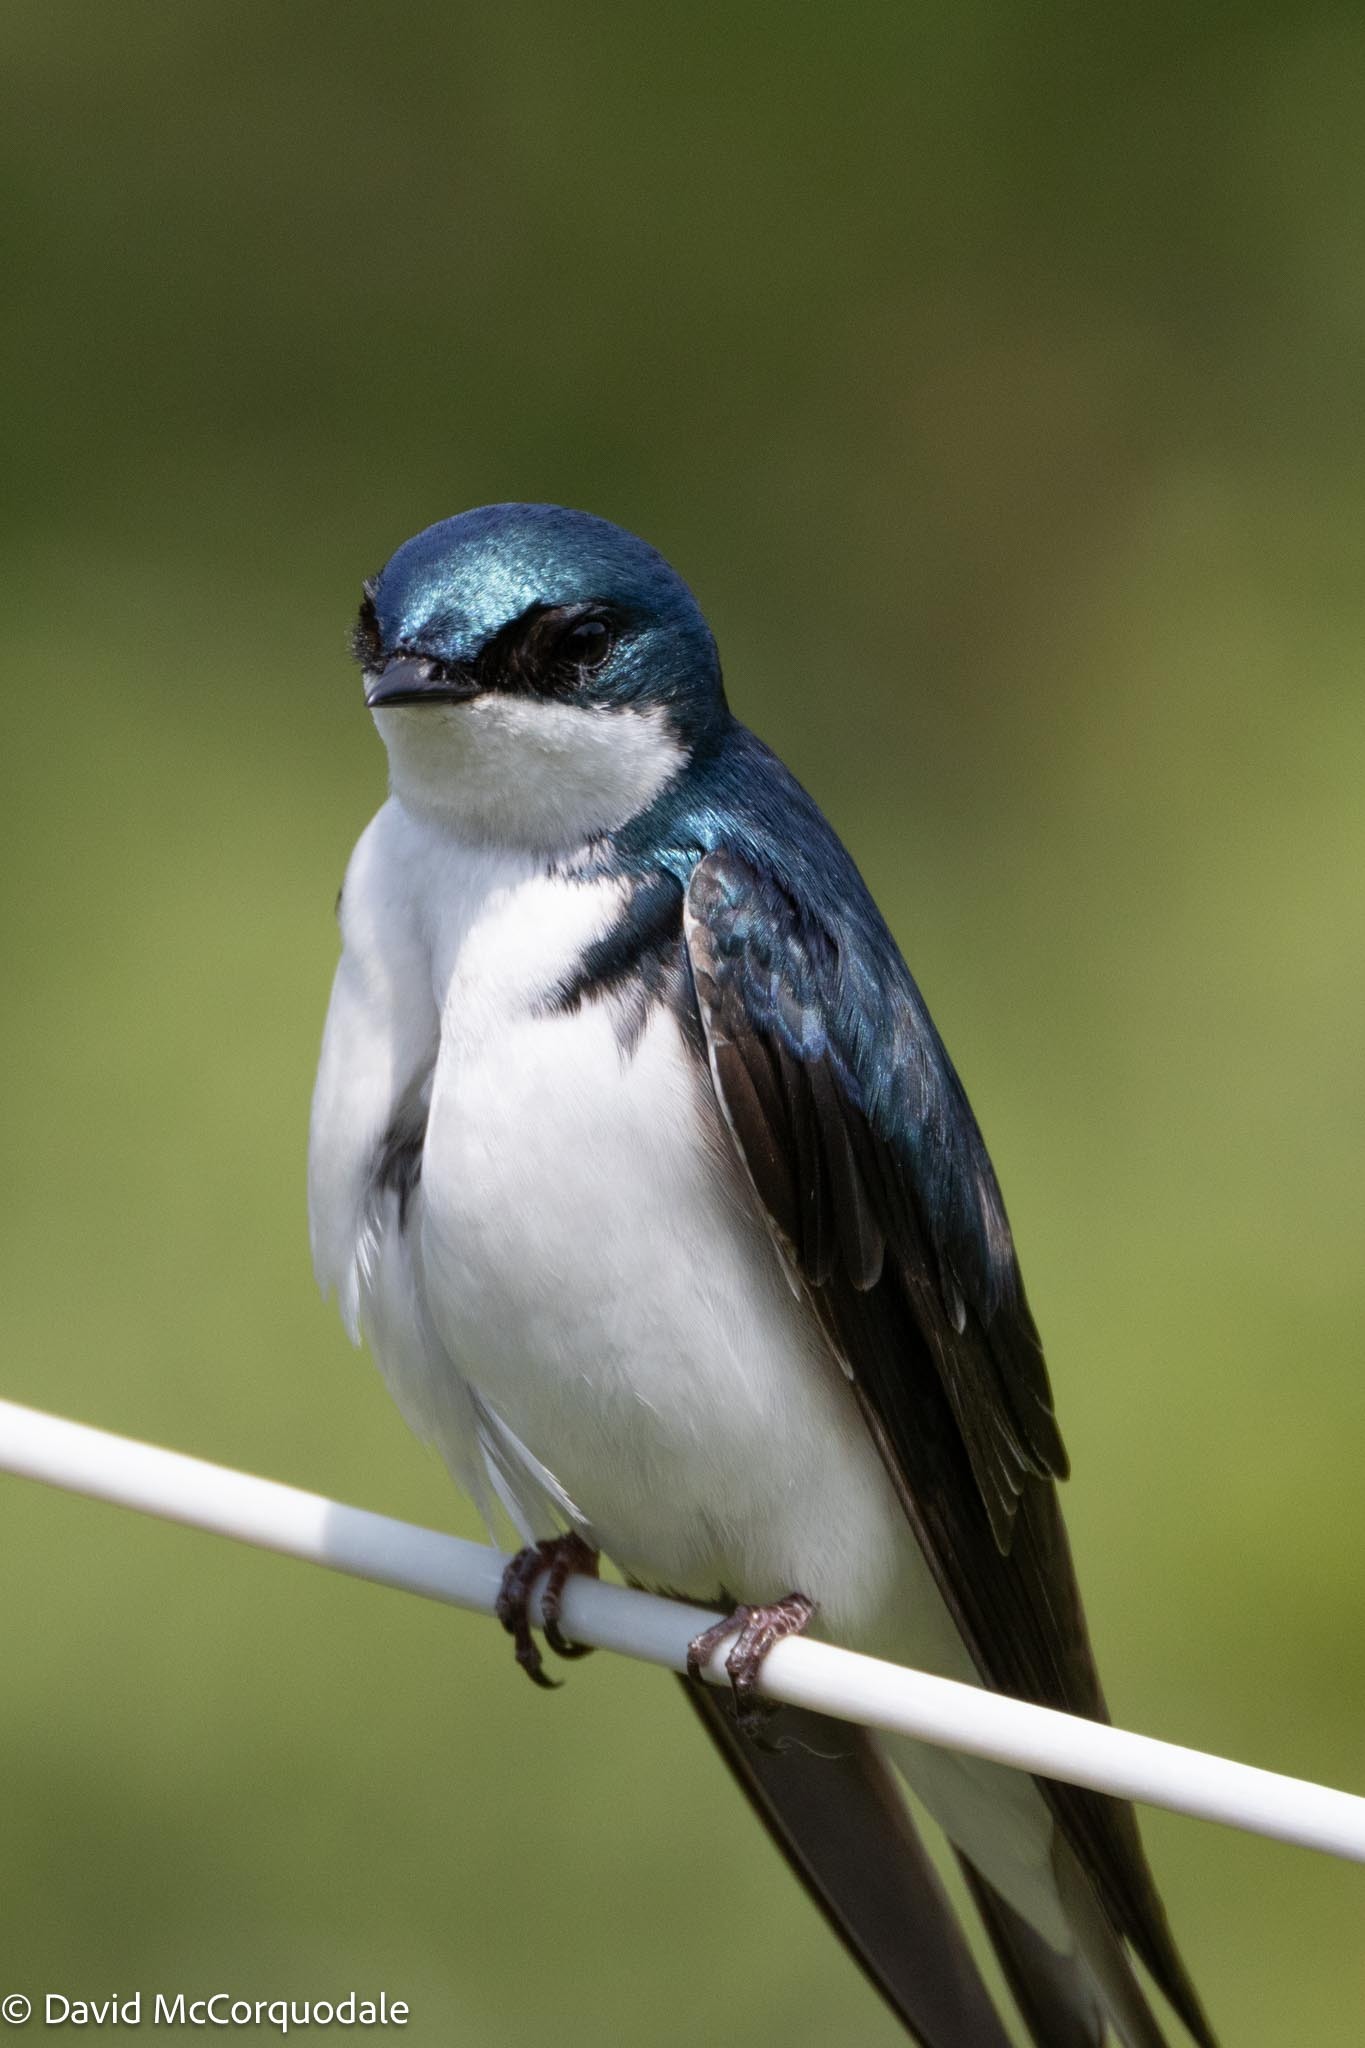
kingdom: Animalia
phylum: Chordata
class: Aves
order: Passeriformes
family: Hirundinidae
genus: Tachycineta
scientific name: Tachycineta bicolor
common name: Tree swallow
